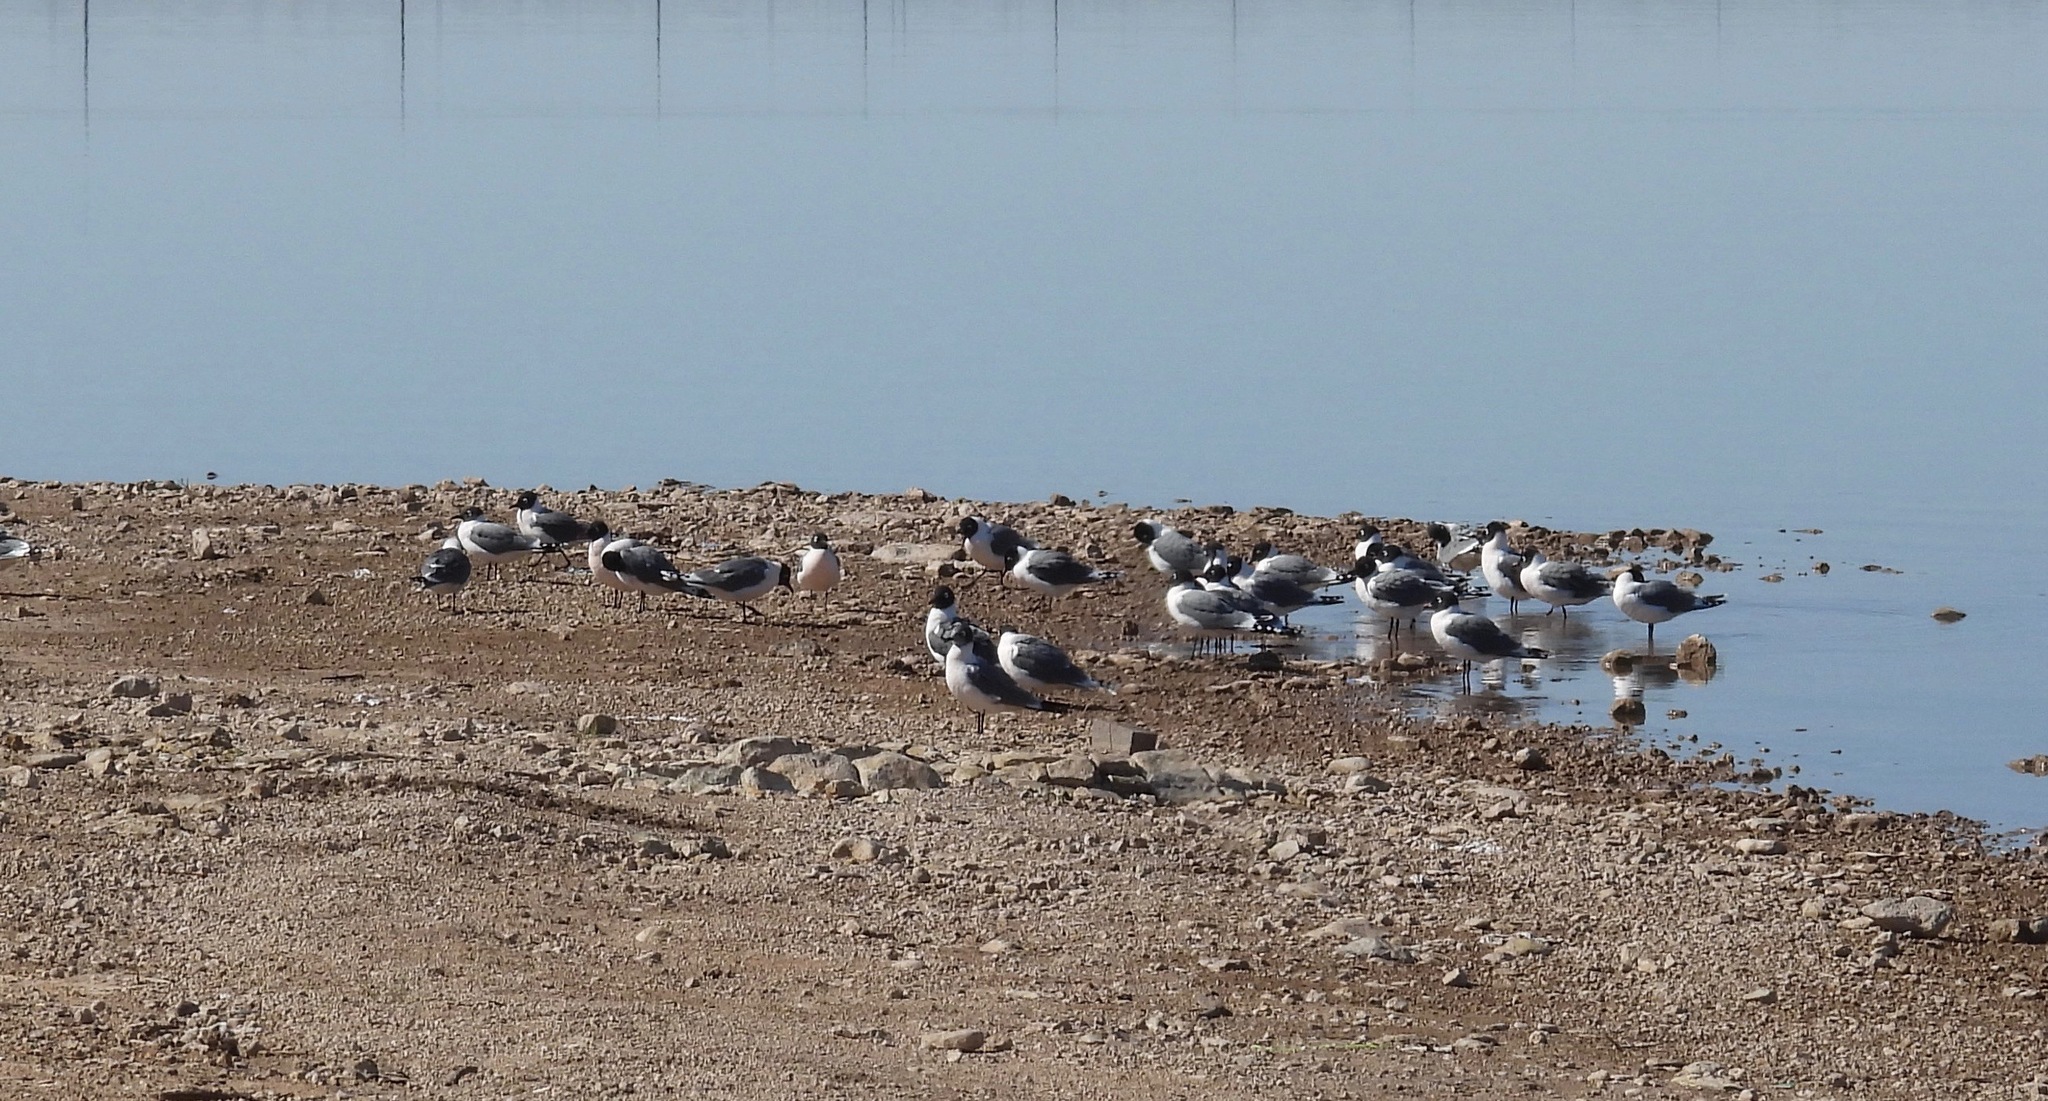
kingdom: Animalia
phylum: Chordata
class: Aves
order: Charadriiformes
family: Laridae
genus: Leucophaeus
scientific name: Leucophaeus pipixcan
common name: Franklin's gull
